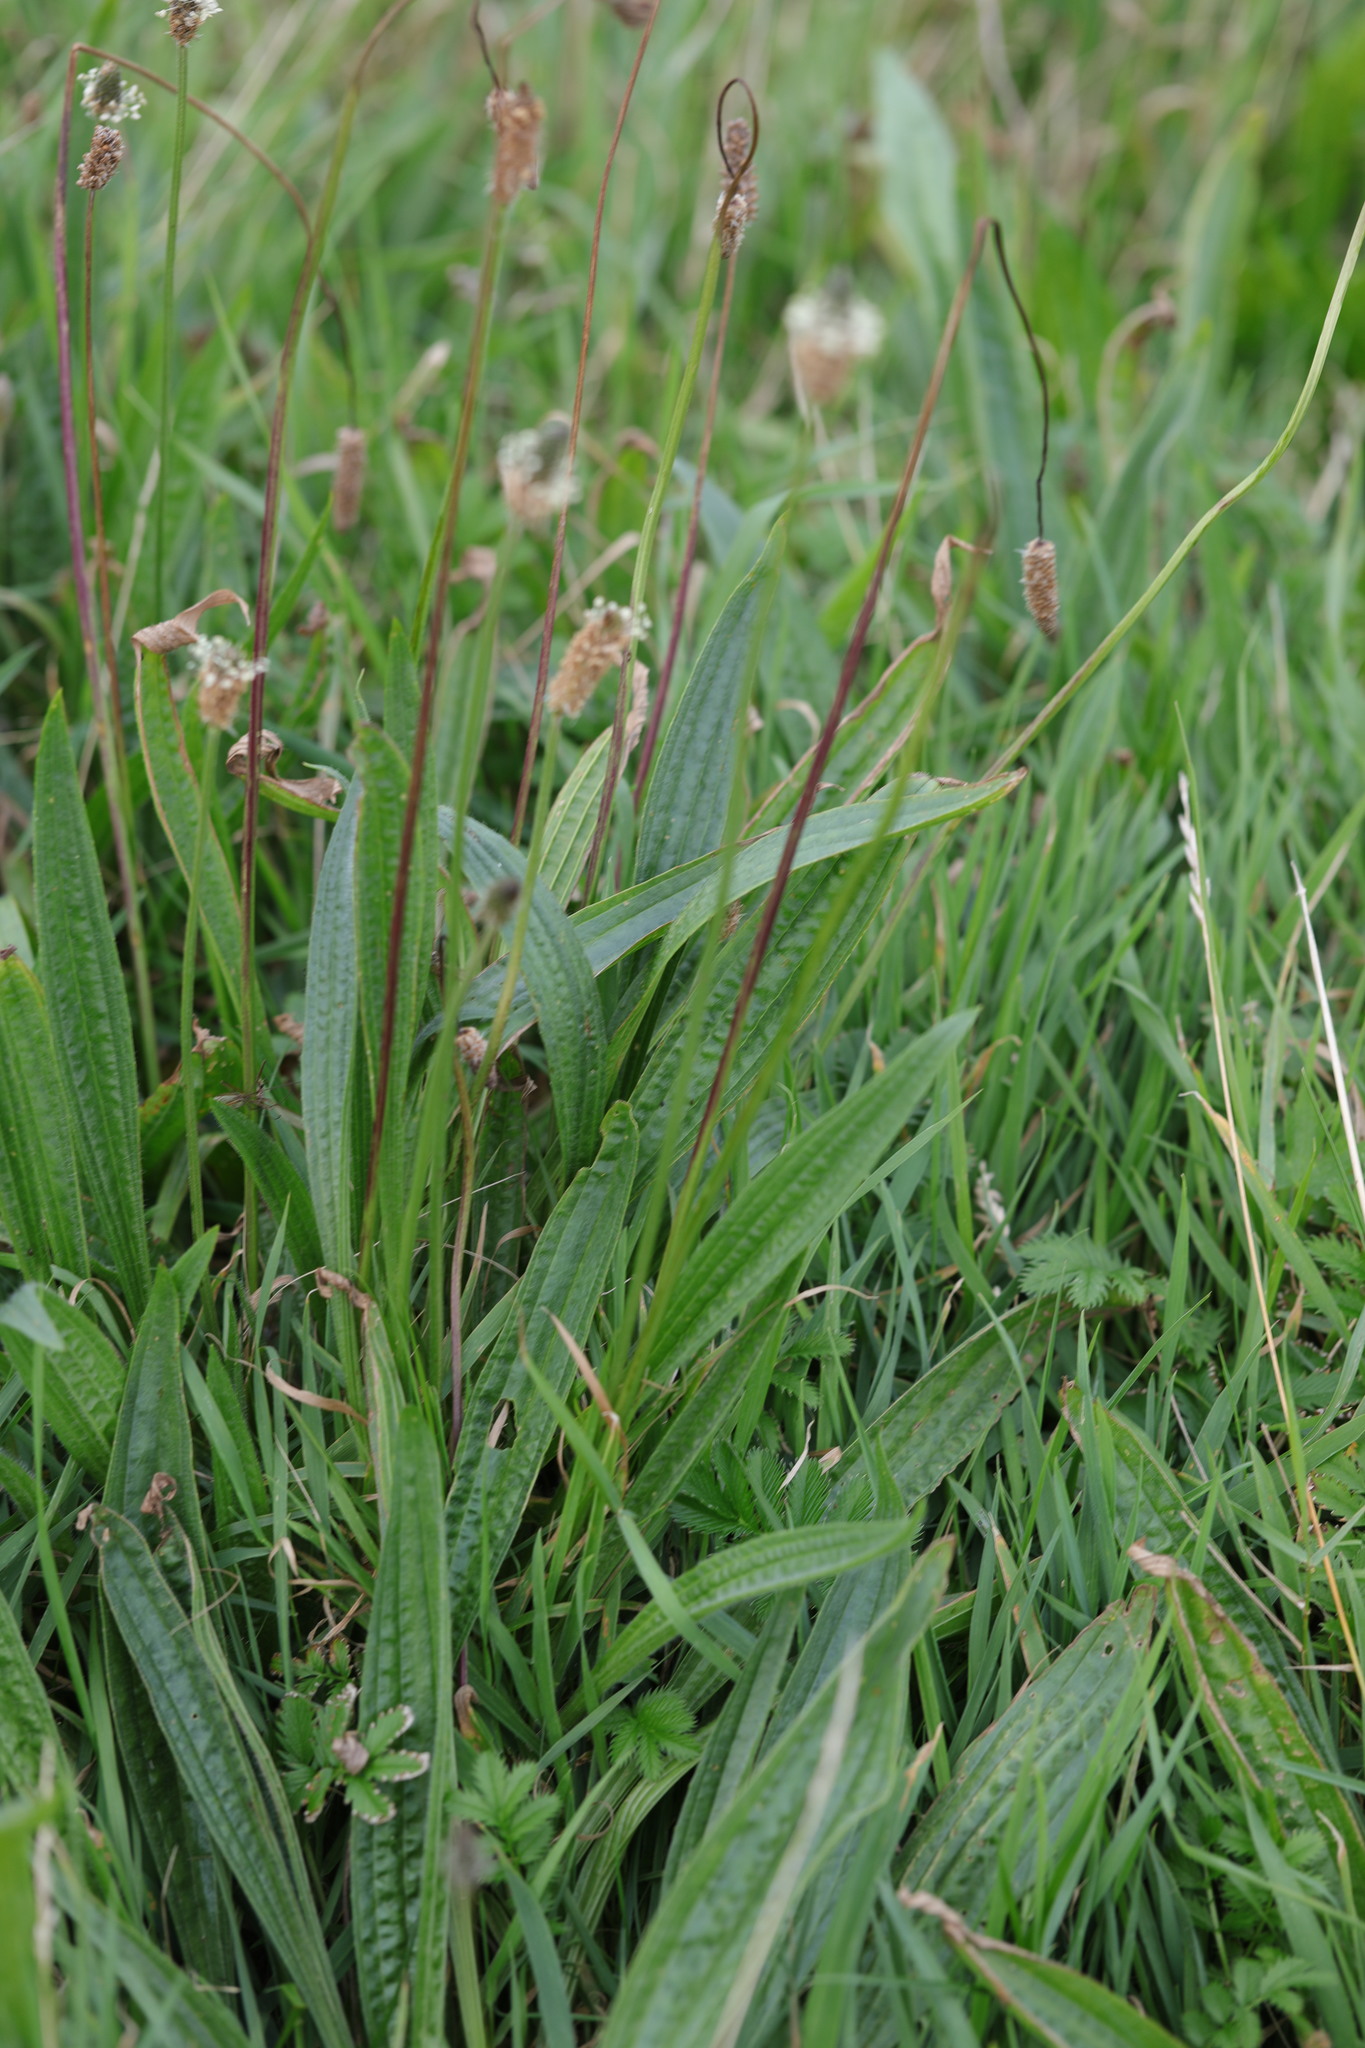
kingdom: Plantae
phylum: Tracheophyta
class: Magnoliopsida
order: Lamiales
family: Plantaginaceae
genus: Plantago
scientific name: Plantago lanceolata
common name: Ribwort plantain
